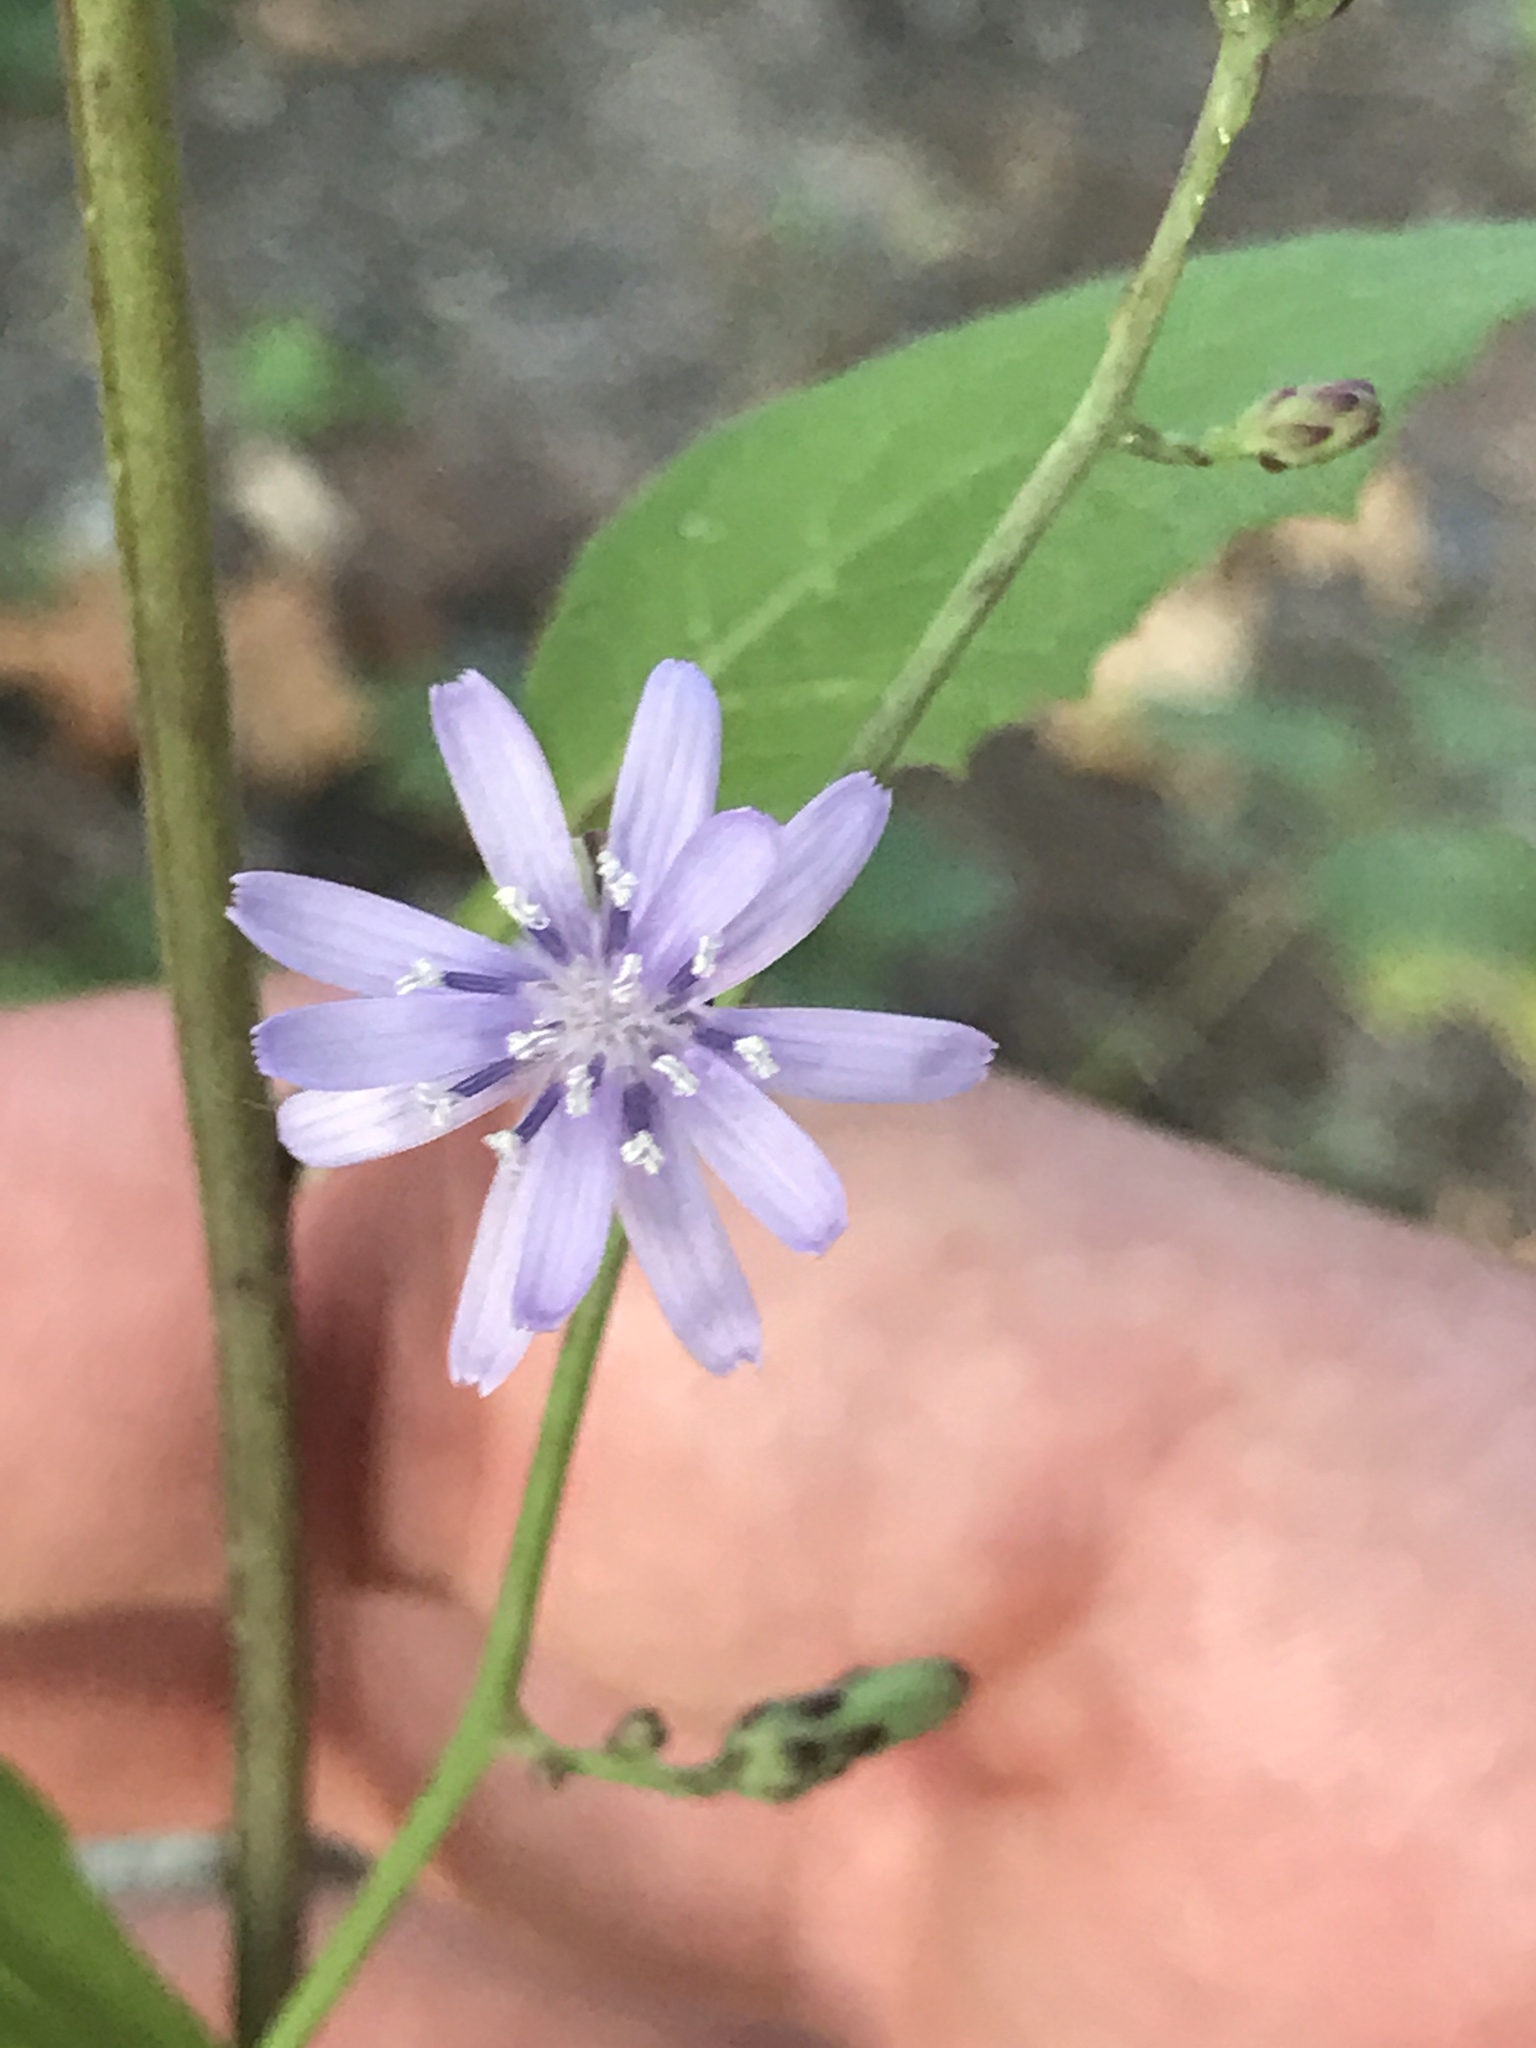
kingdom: Plantae
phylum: Tracheophyta
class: Magnoliopsida
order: Asterales
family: Asteraceae
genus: Lactuca
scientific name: Lactuca floridana
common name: Woodland lettuce
